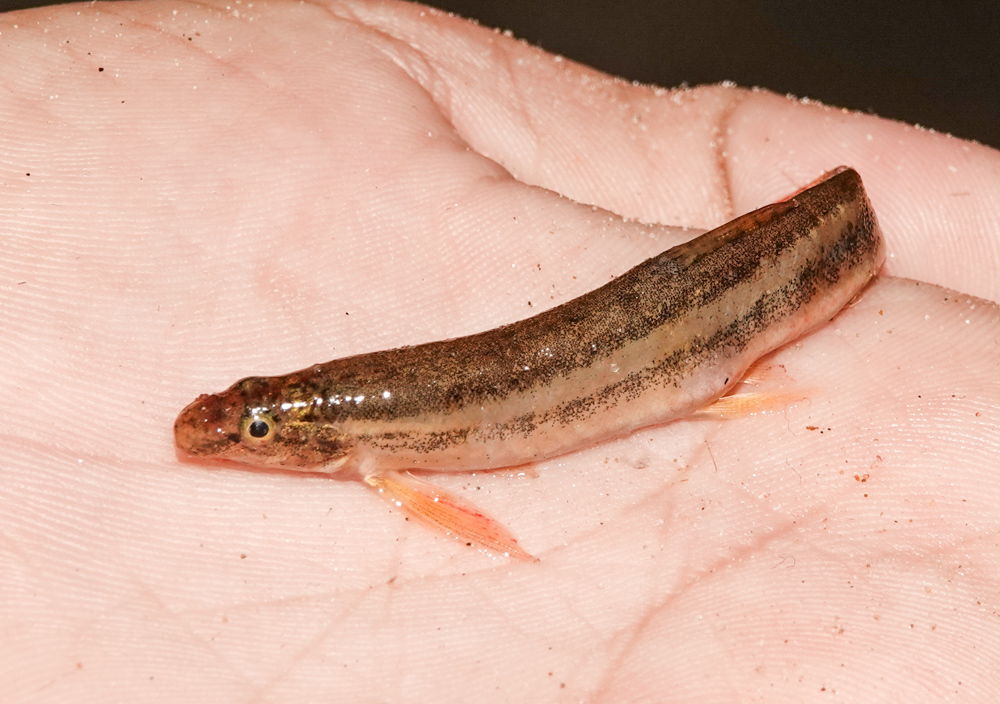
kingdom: Animalia
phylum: Chordata
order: Cypriniformes
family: Cobitidae
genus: Lepidocephalichthys
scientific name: Lepidocephalichthys guntea
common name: Guntea loach
